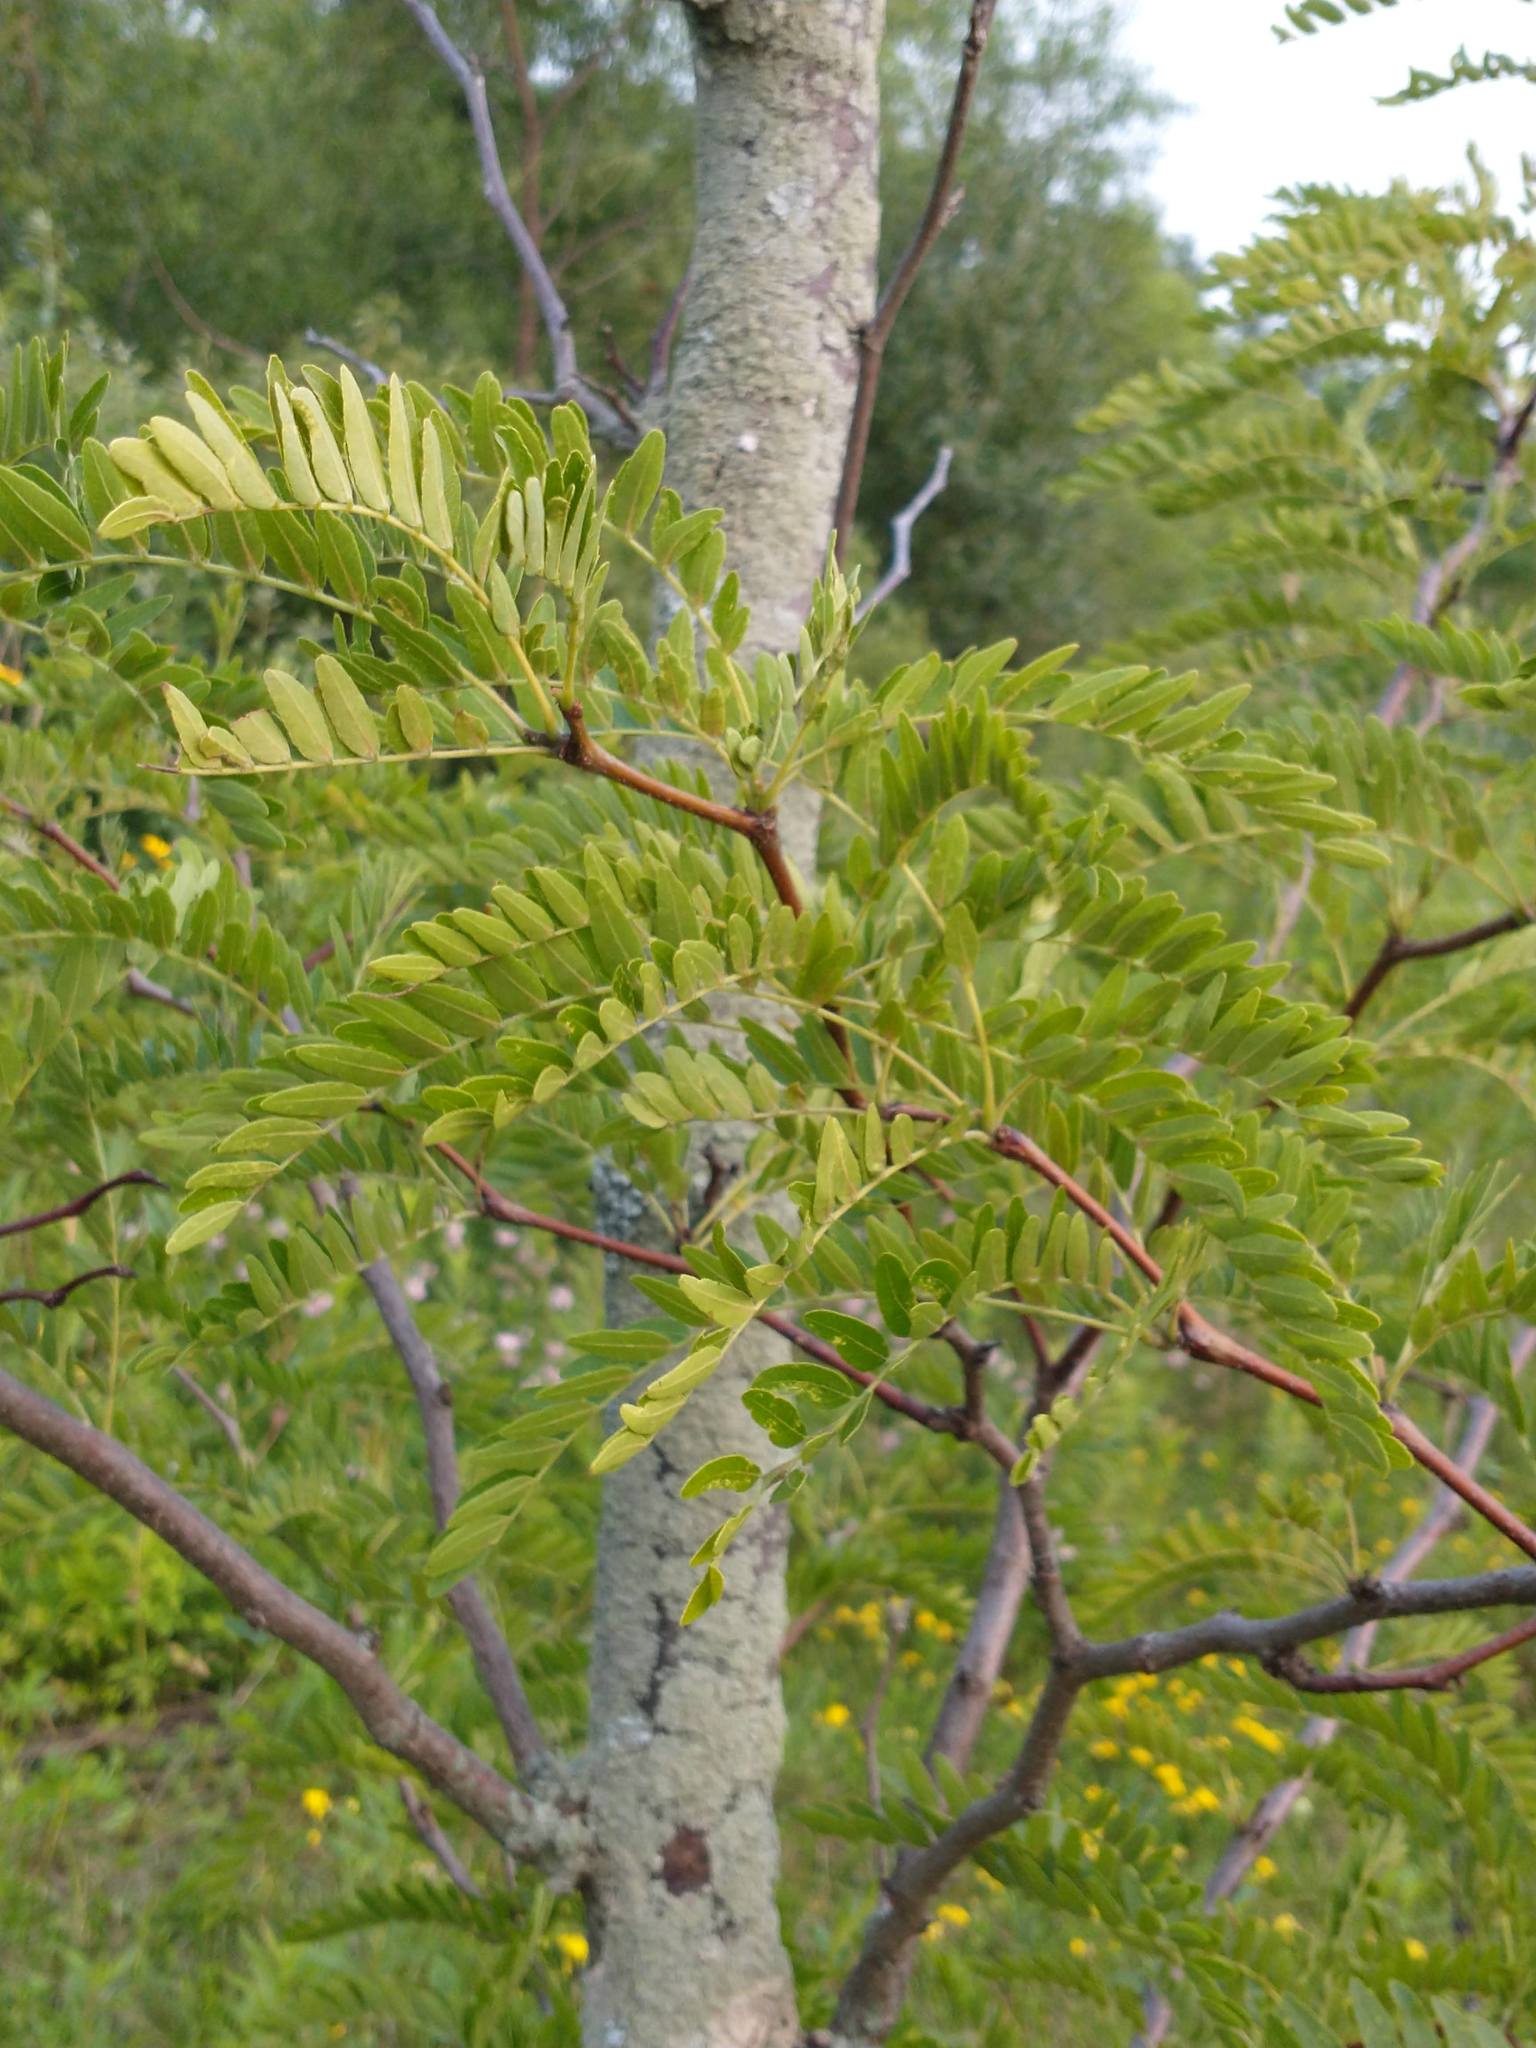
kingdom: Plantae
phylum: Tracheophyta
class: Magnoliopsida
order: Fabales
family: Fabaceae
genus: Gleditsia
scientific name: Gleditsia triacanthos
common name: Common honeylocust
